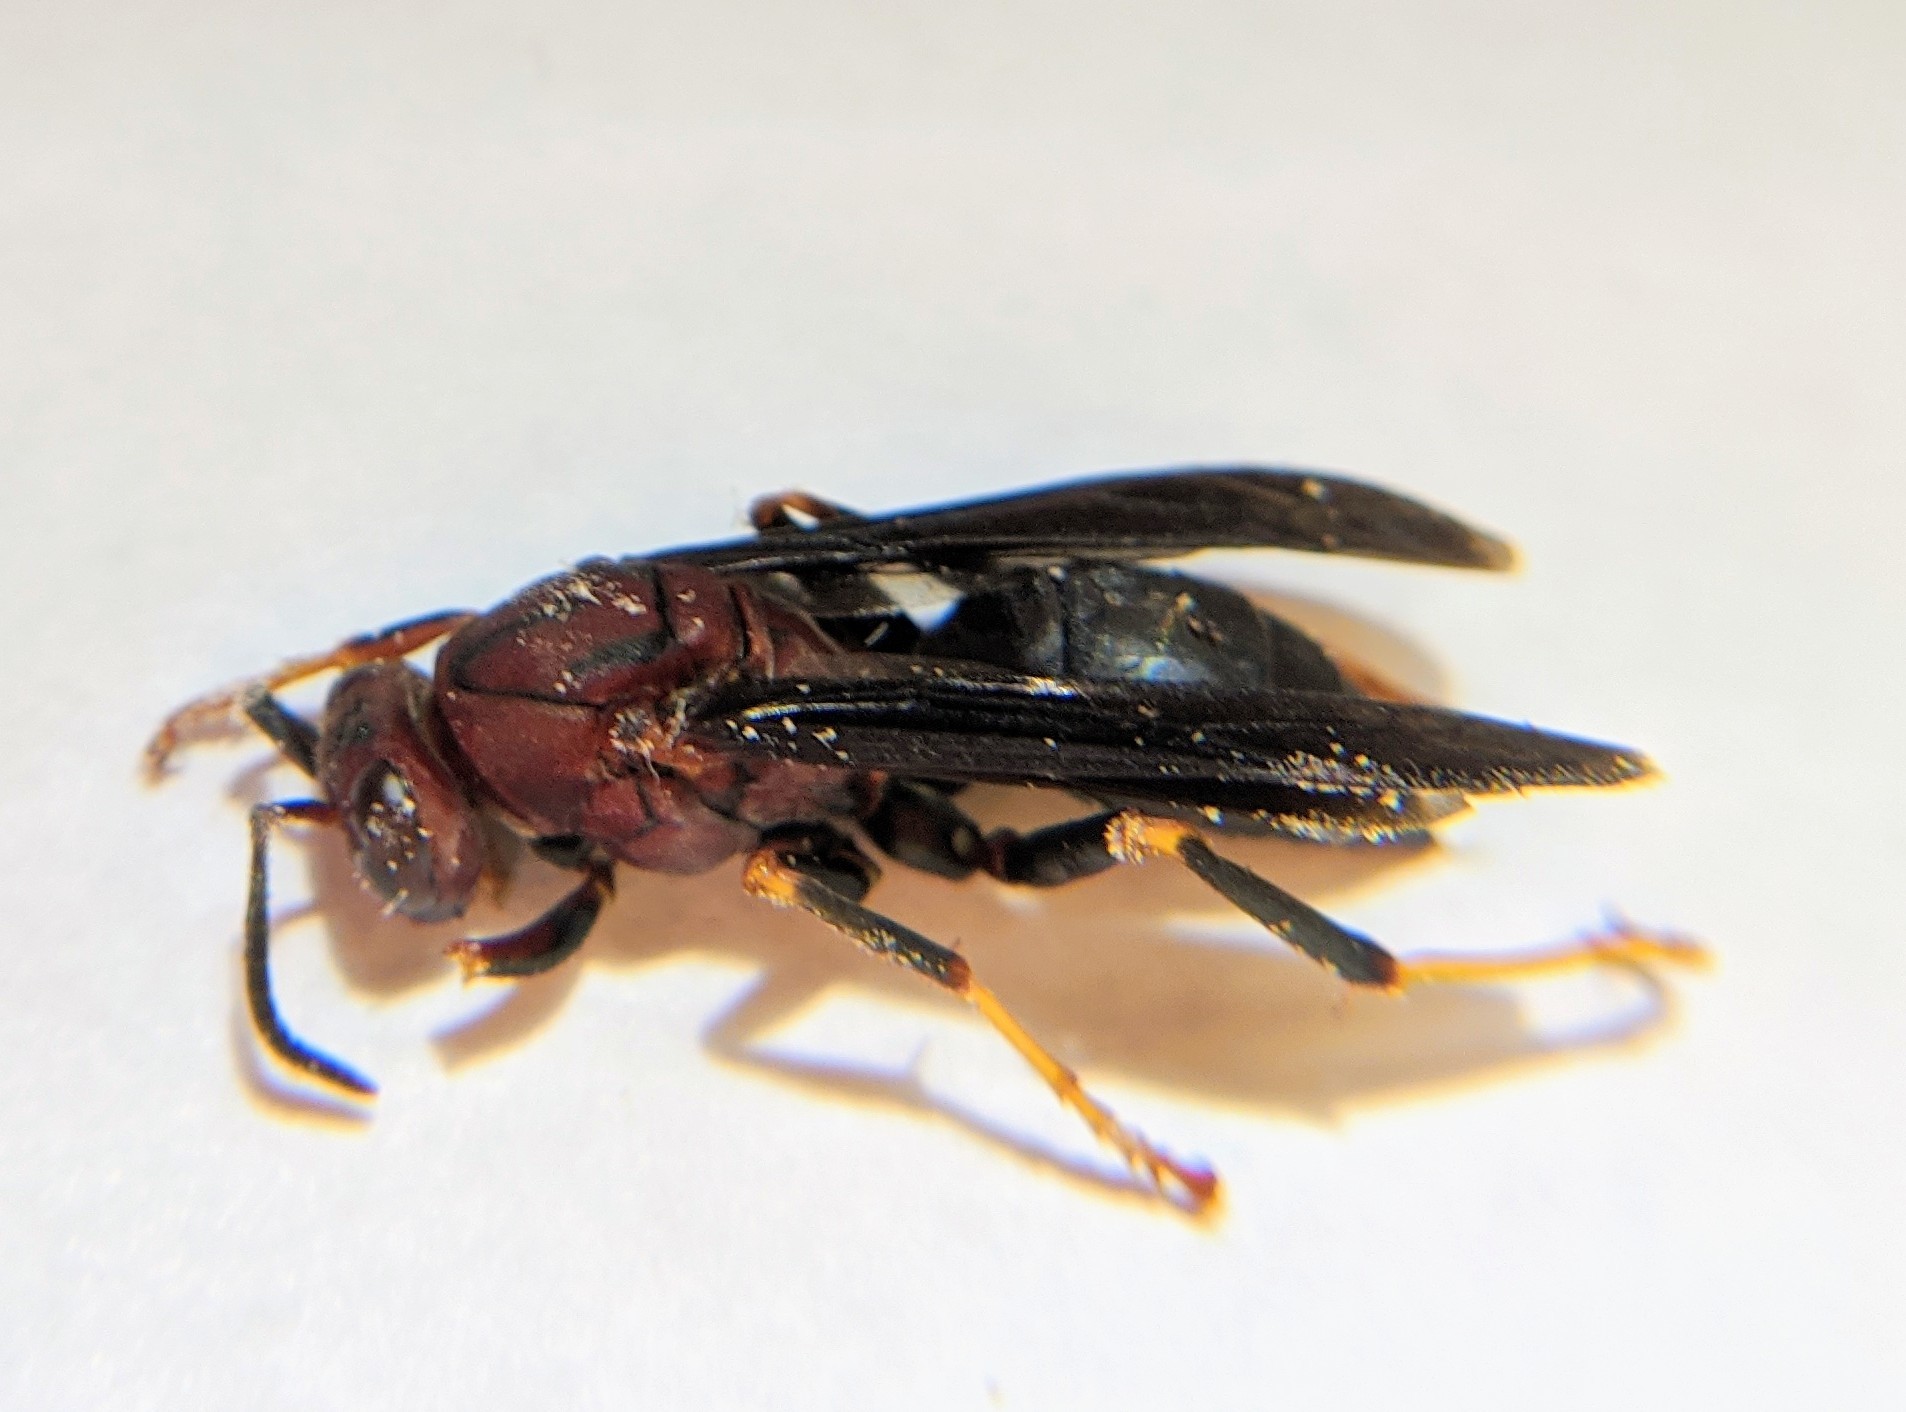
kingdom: Animalia
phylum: Arthropoda
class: Insecta
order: Hymenoptera
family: Eumenidae
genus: Polistes
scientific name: Polistes metricus
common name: Metric paper wasp
